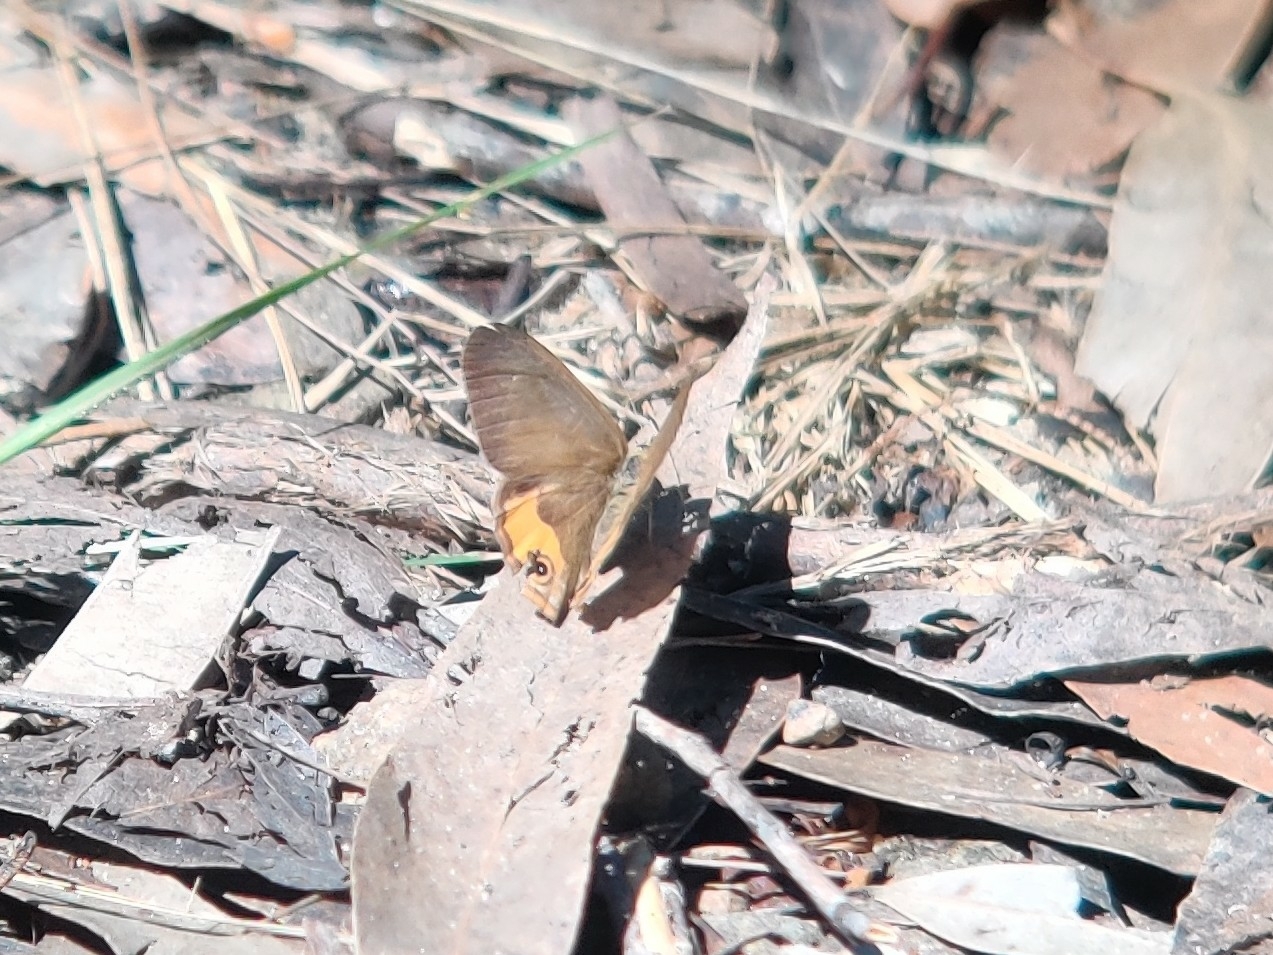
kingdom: Animalia
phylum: Arthropoda
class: Insecta
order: Lepidoptera
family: Nymphalidae
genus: Hypocysta
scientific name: Hypocysta metirius
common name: Brown ringlet
